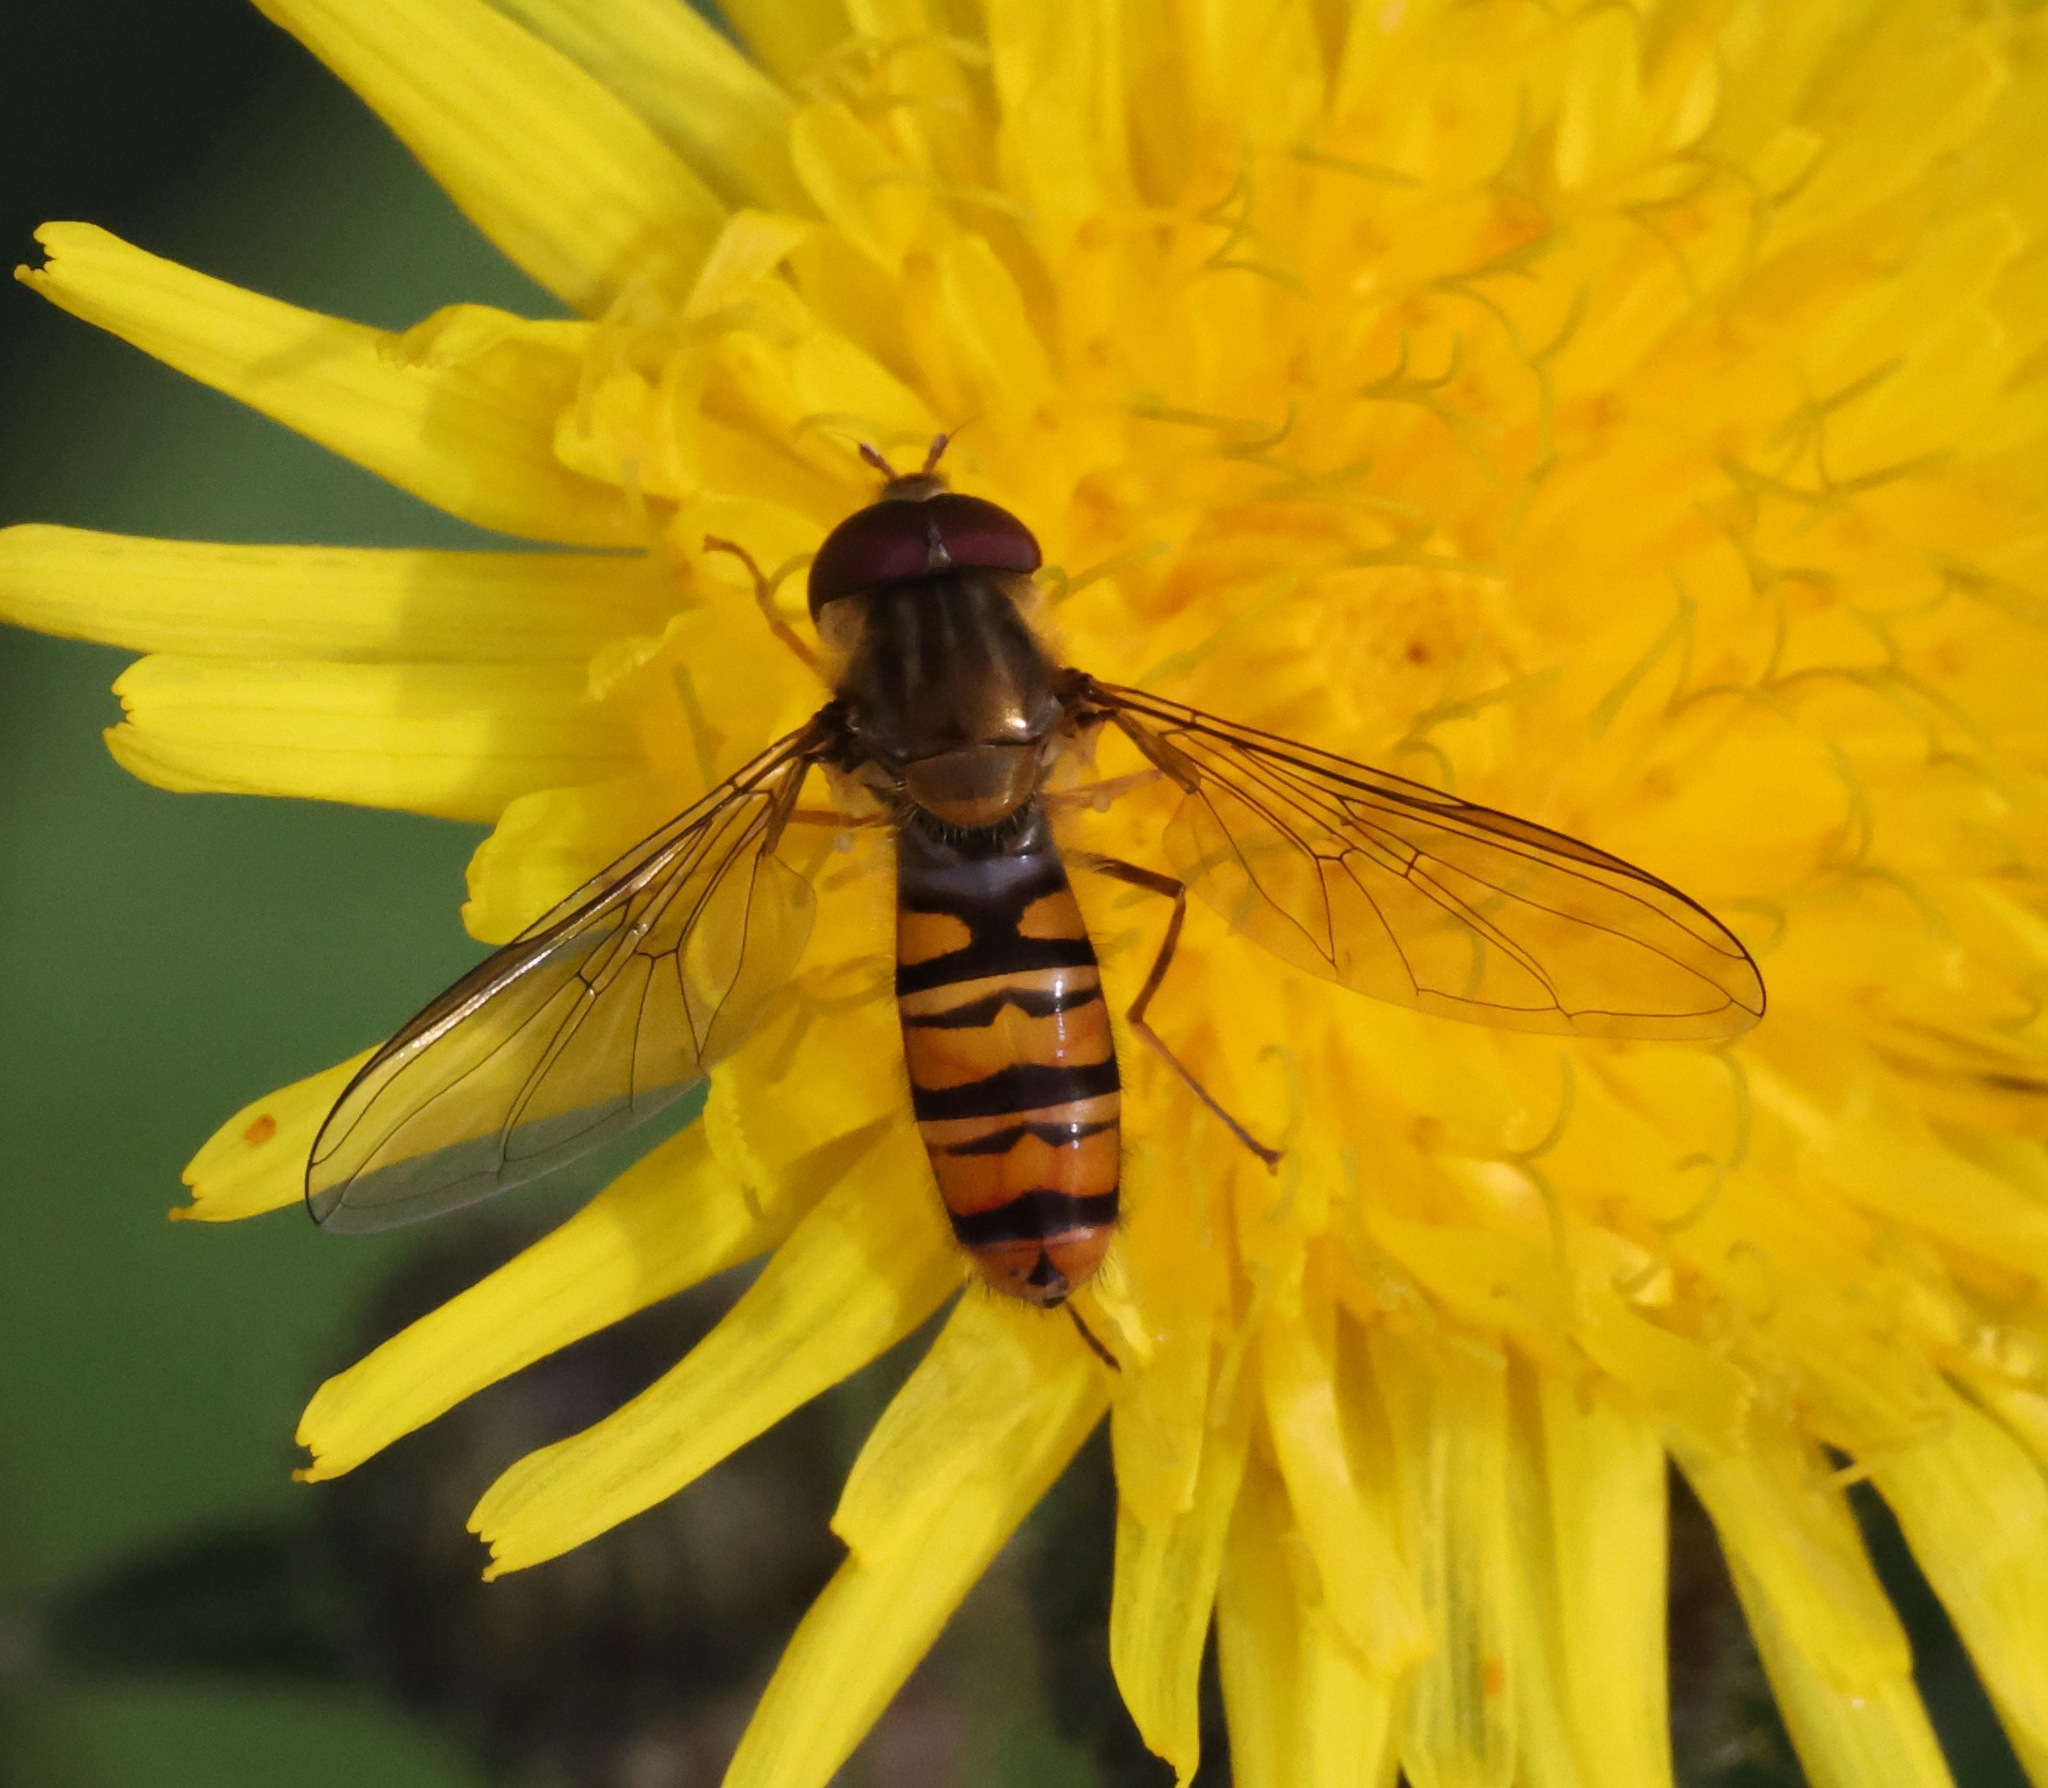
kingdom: Animalia
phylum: Arthropoda
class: Insecta
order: Diptera
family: Syrphidae
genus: Episyrphus
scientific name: Episyrphus balteatus
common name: Marmalade hoverfly
